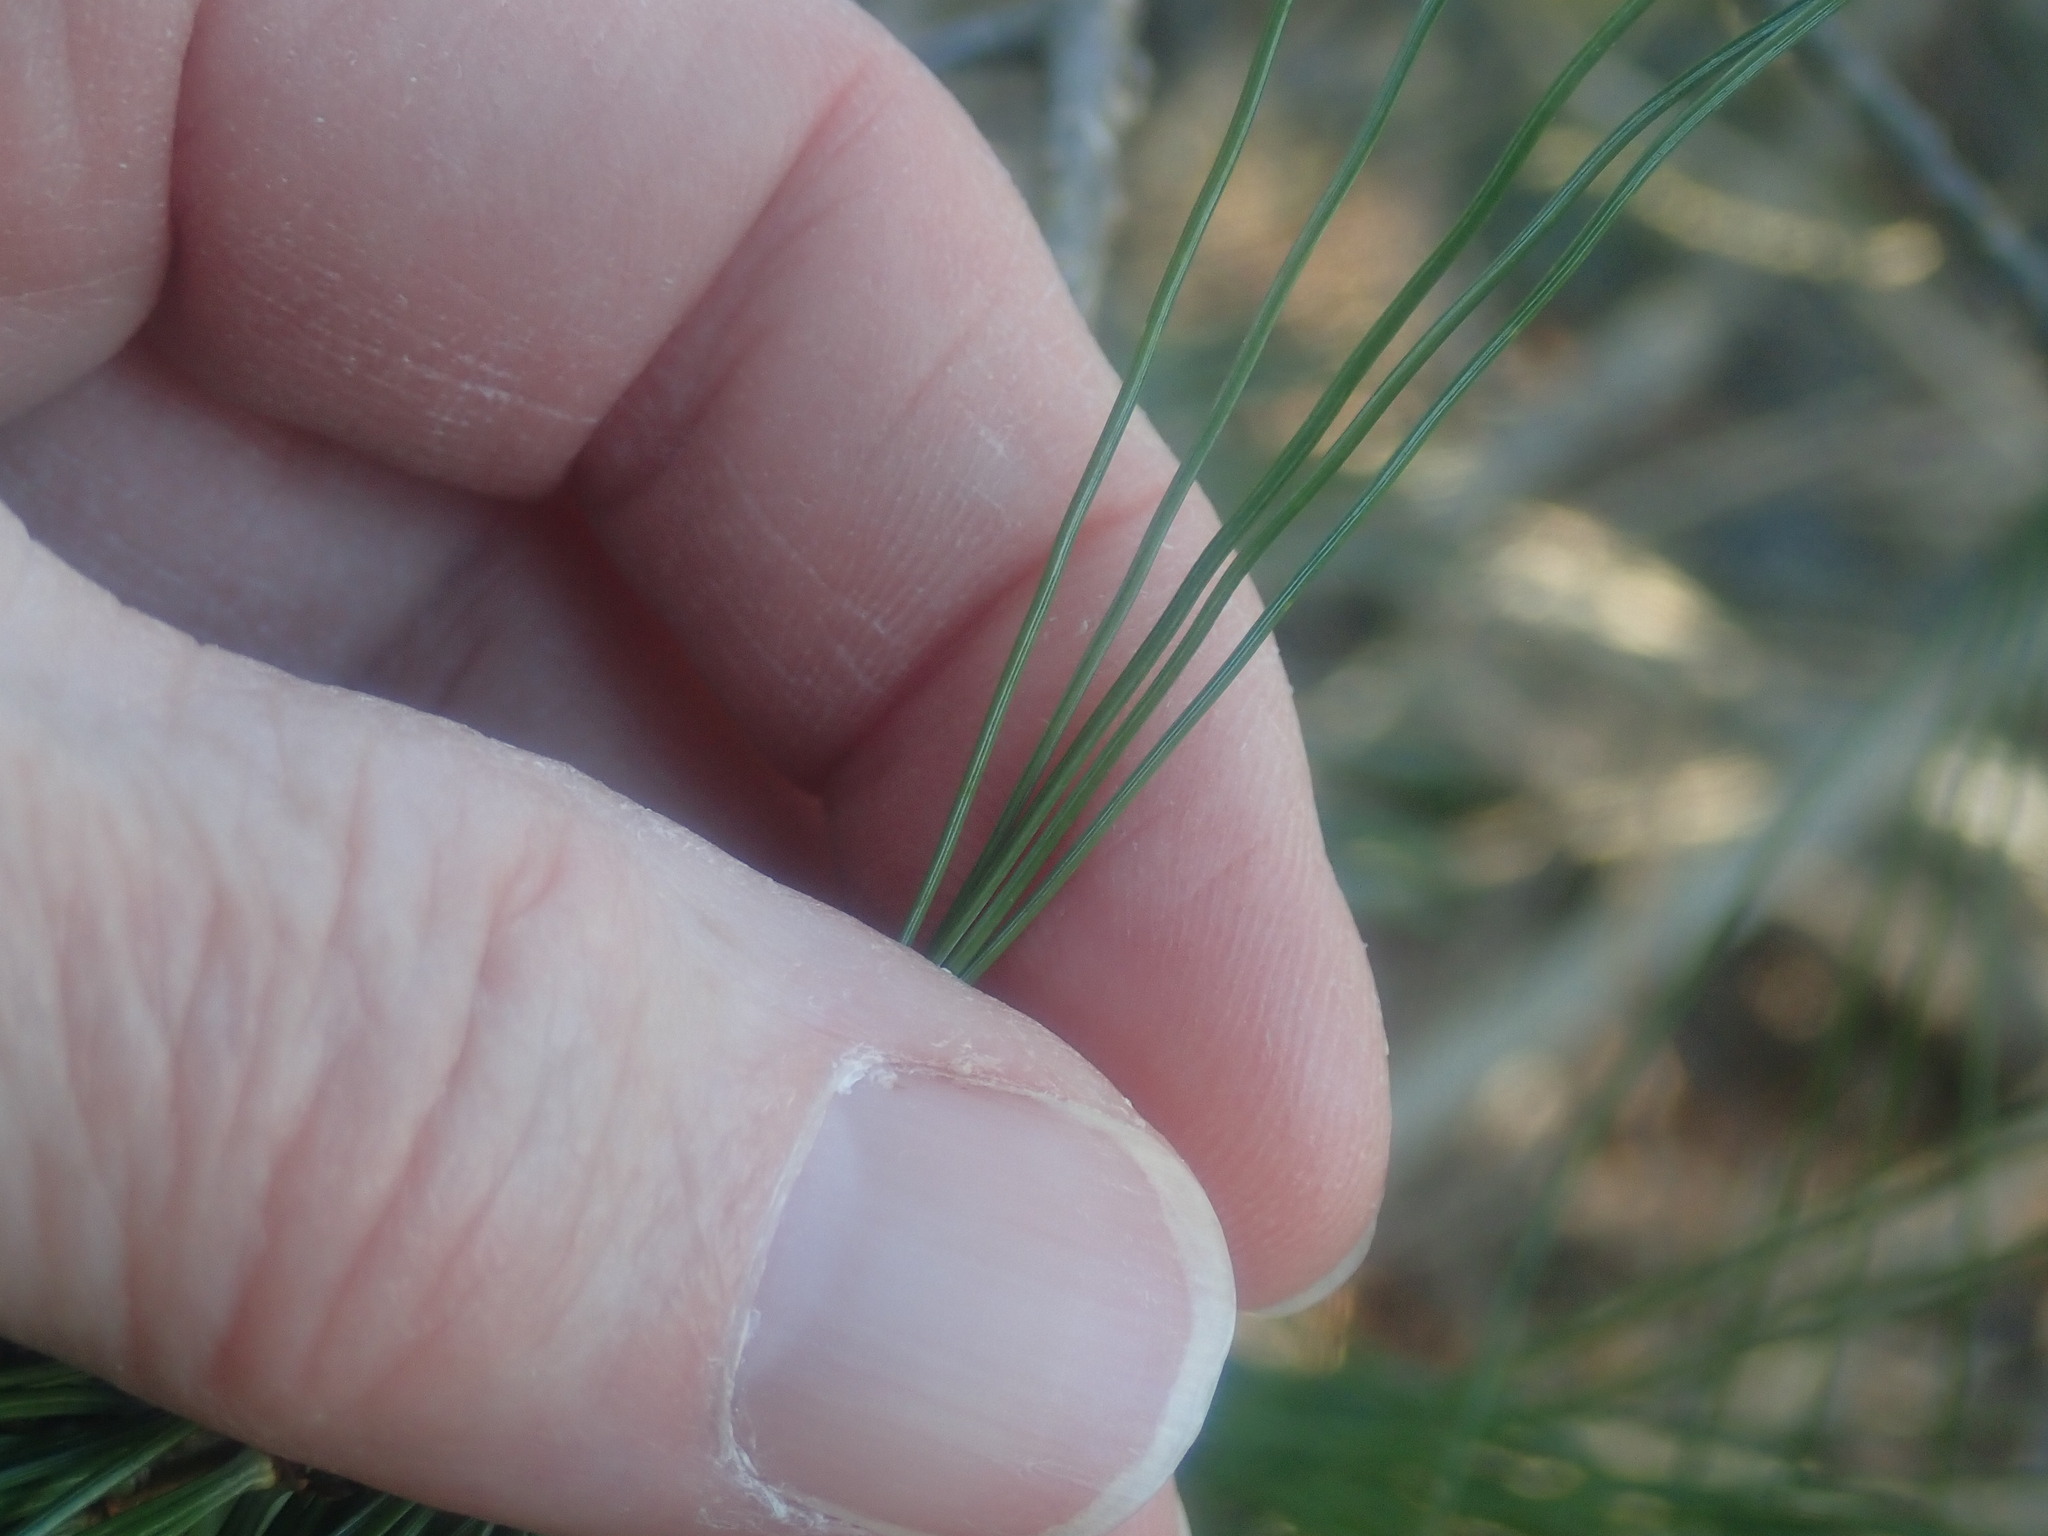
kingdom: Plantae
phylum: Tracheophyta
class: Pinopsida
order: Pinales
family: Pinaceae
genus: Pinus
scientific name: Pinus strobus
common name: Weymouth pine
